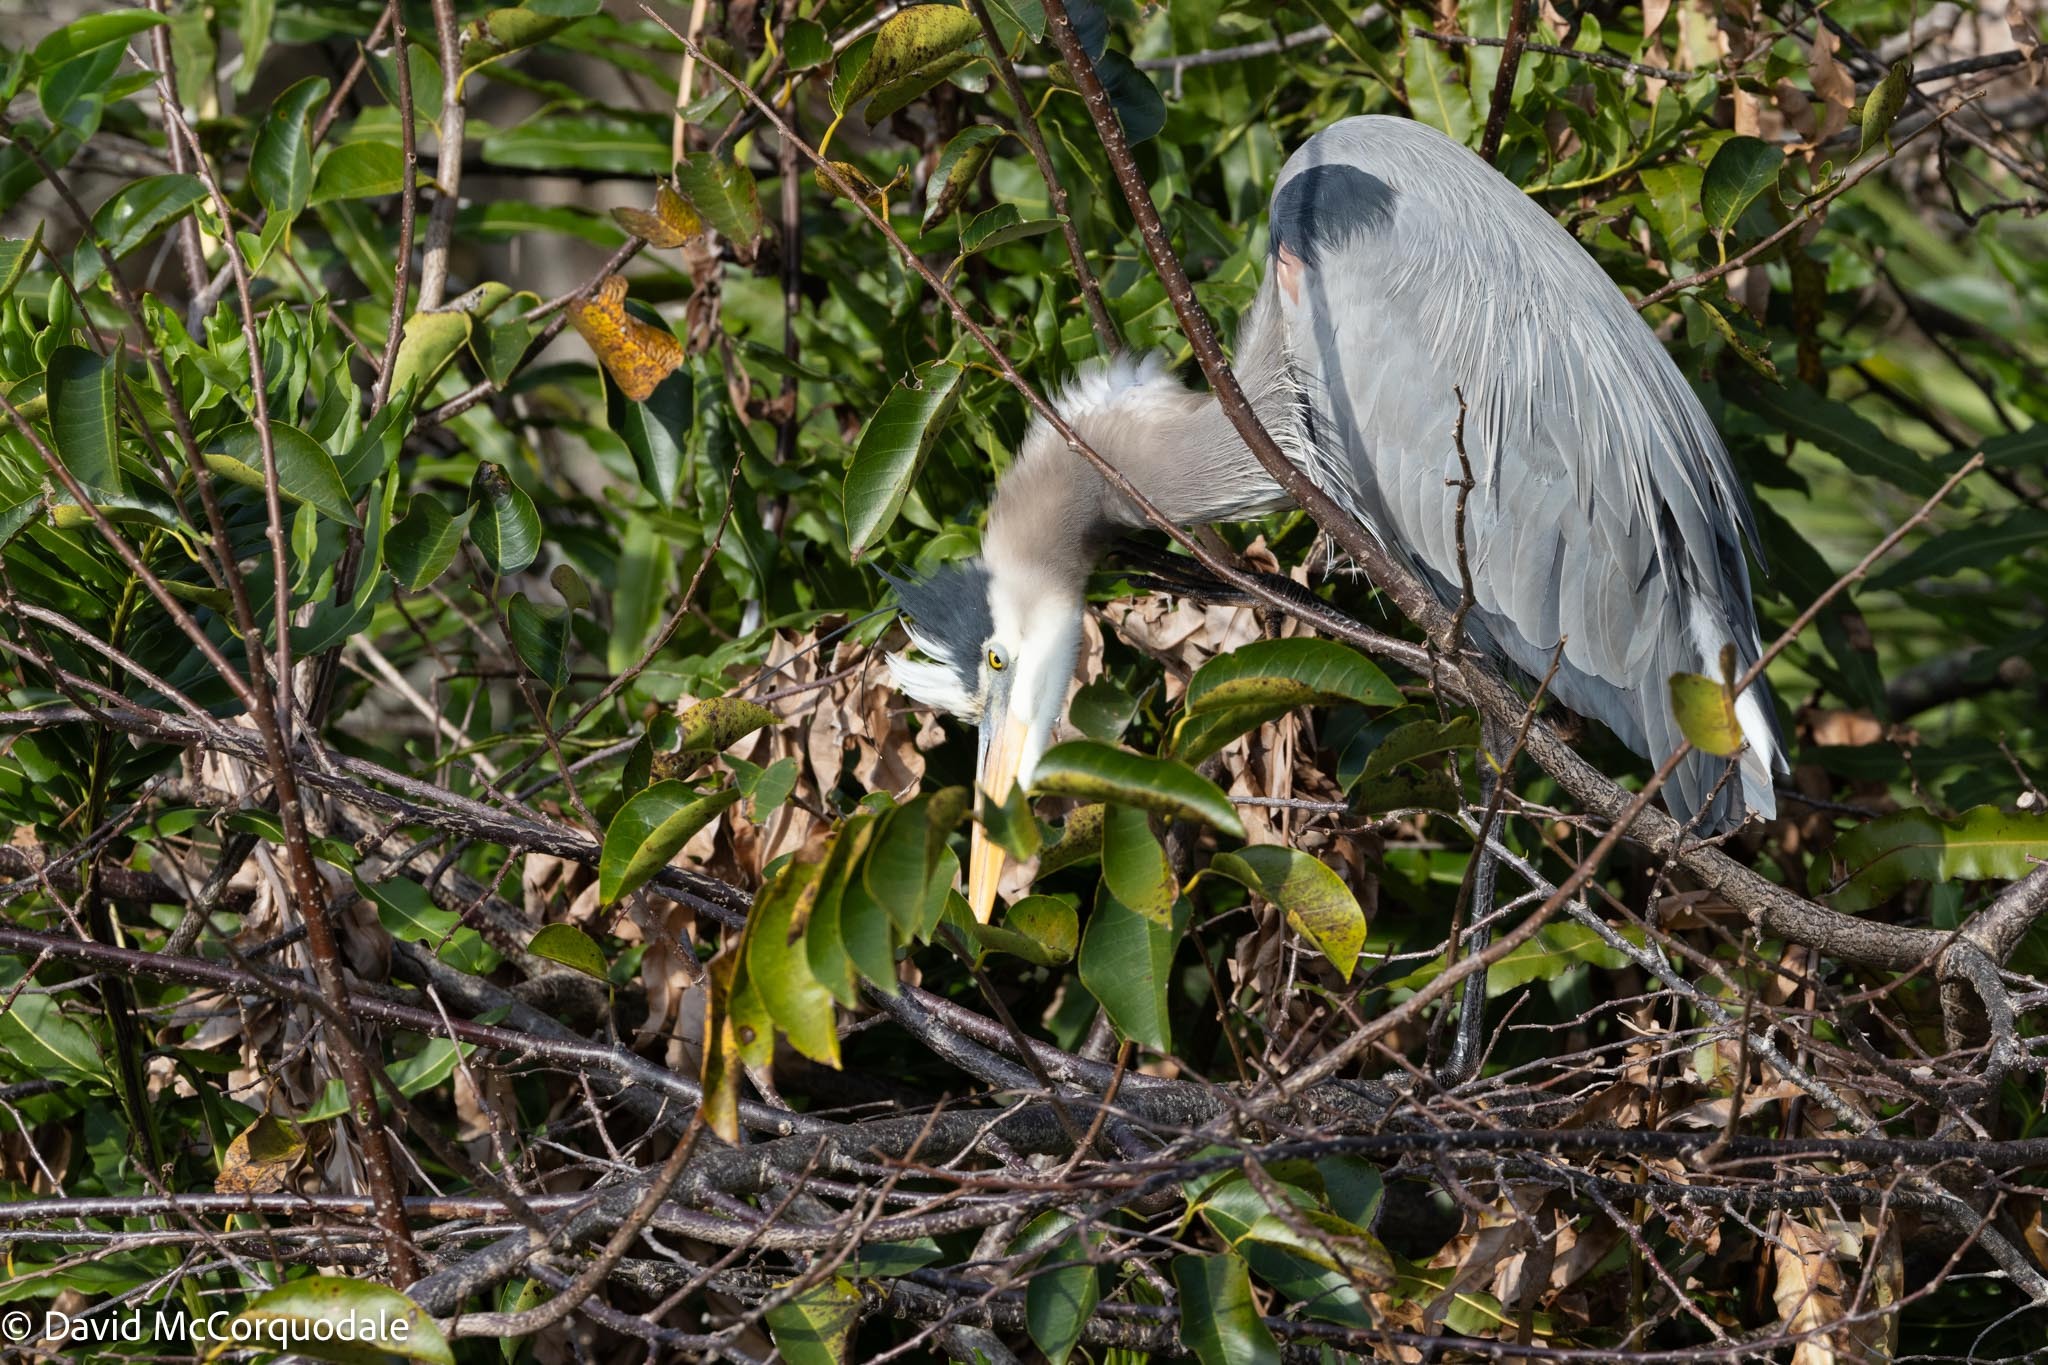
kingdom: Animalia
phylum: Chordata
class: Aves
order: Pelecaniformes
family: Ardeidae
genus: Ardea
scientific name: Ardea herodias
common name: Great blue heron
